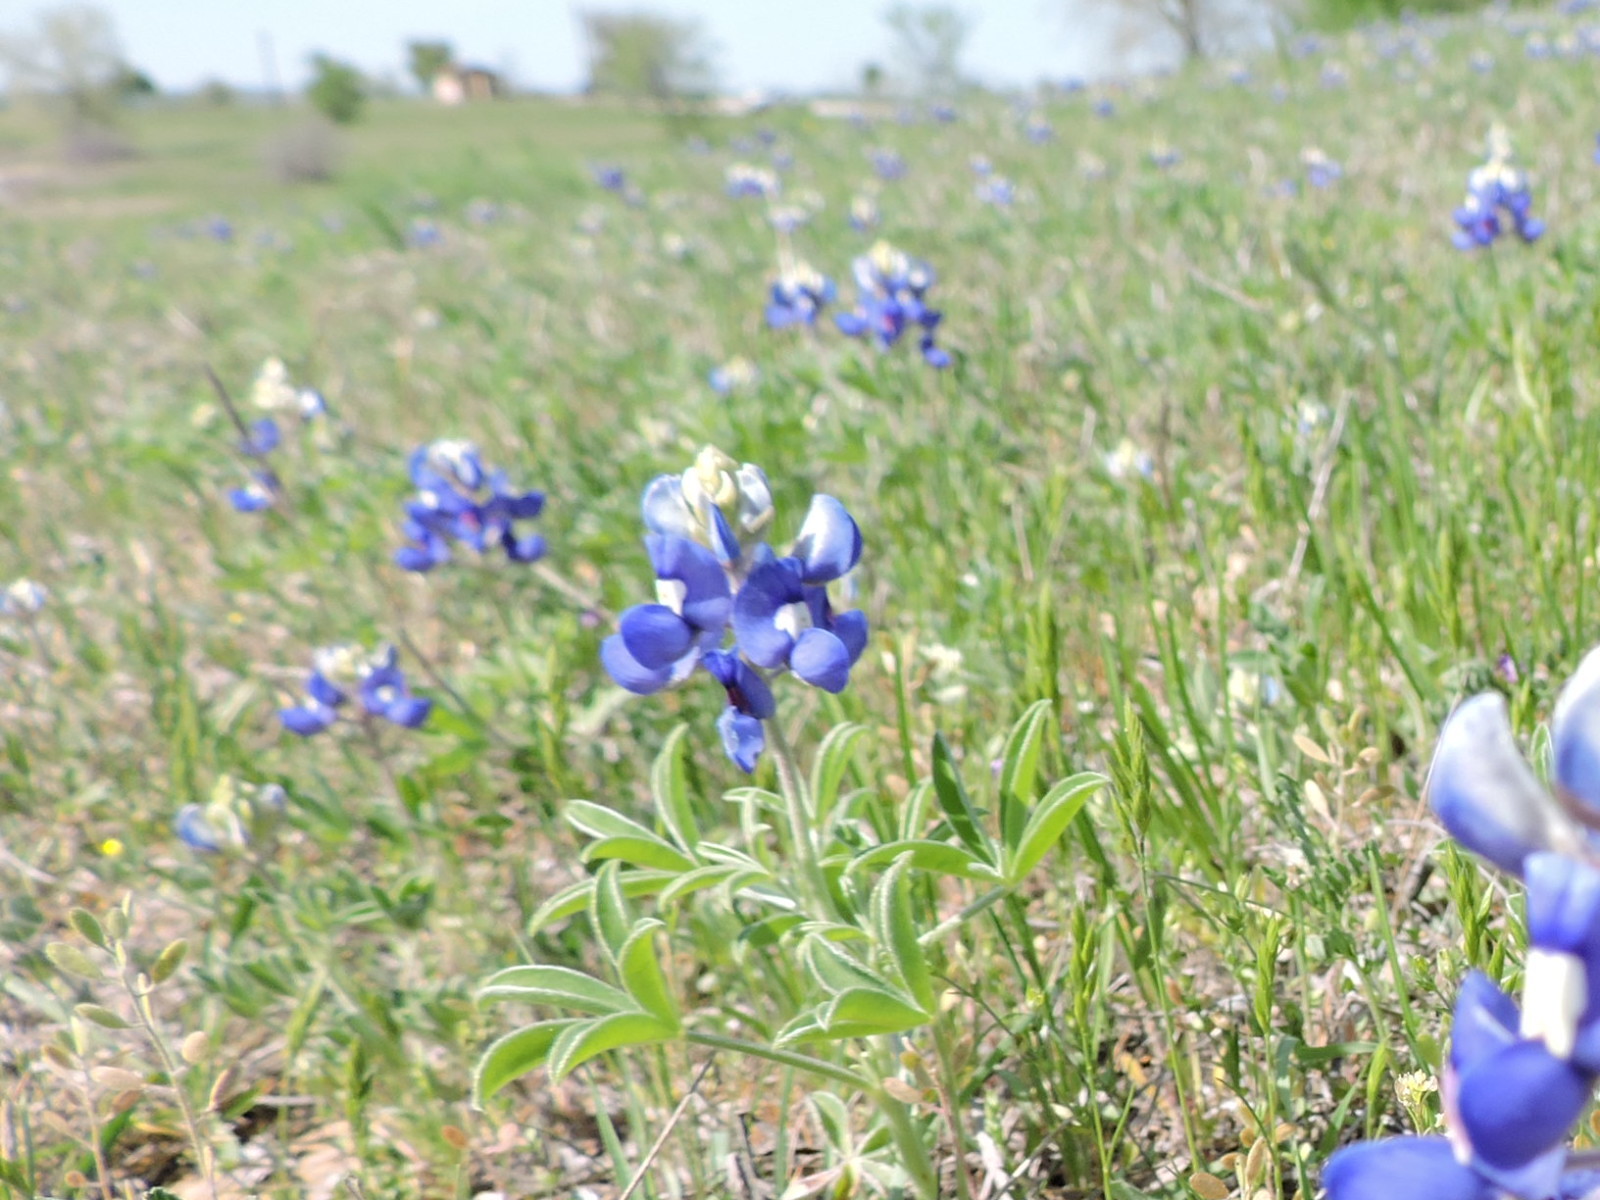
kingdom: Plantae
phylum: Tracheophyta
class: Magnoliopsida
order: Fabales
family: Fabaceae
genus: Lupinus
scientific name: Lupinus texensis
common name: Texas bluebonnet
